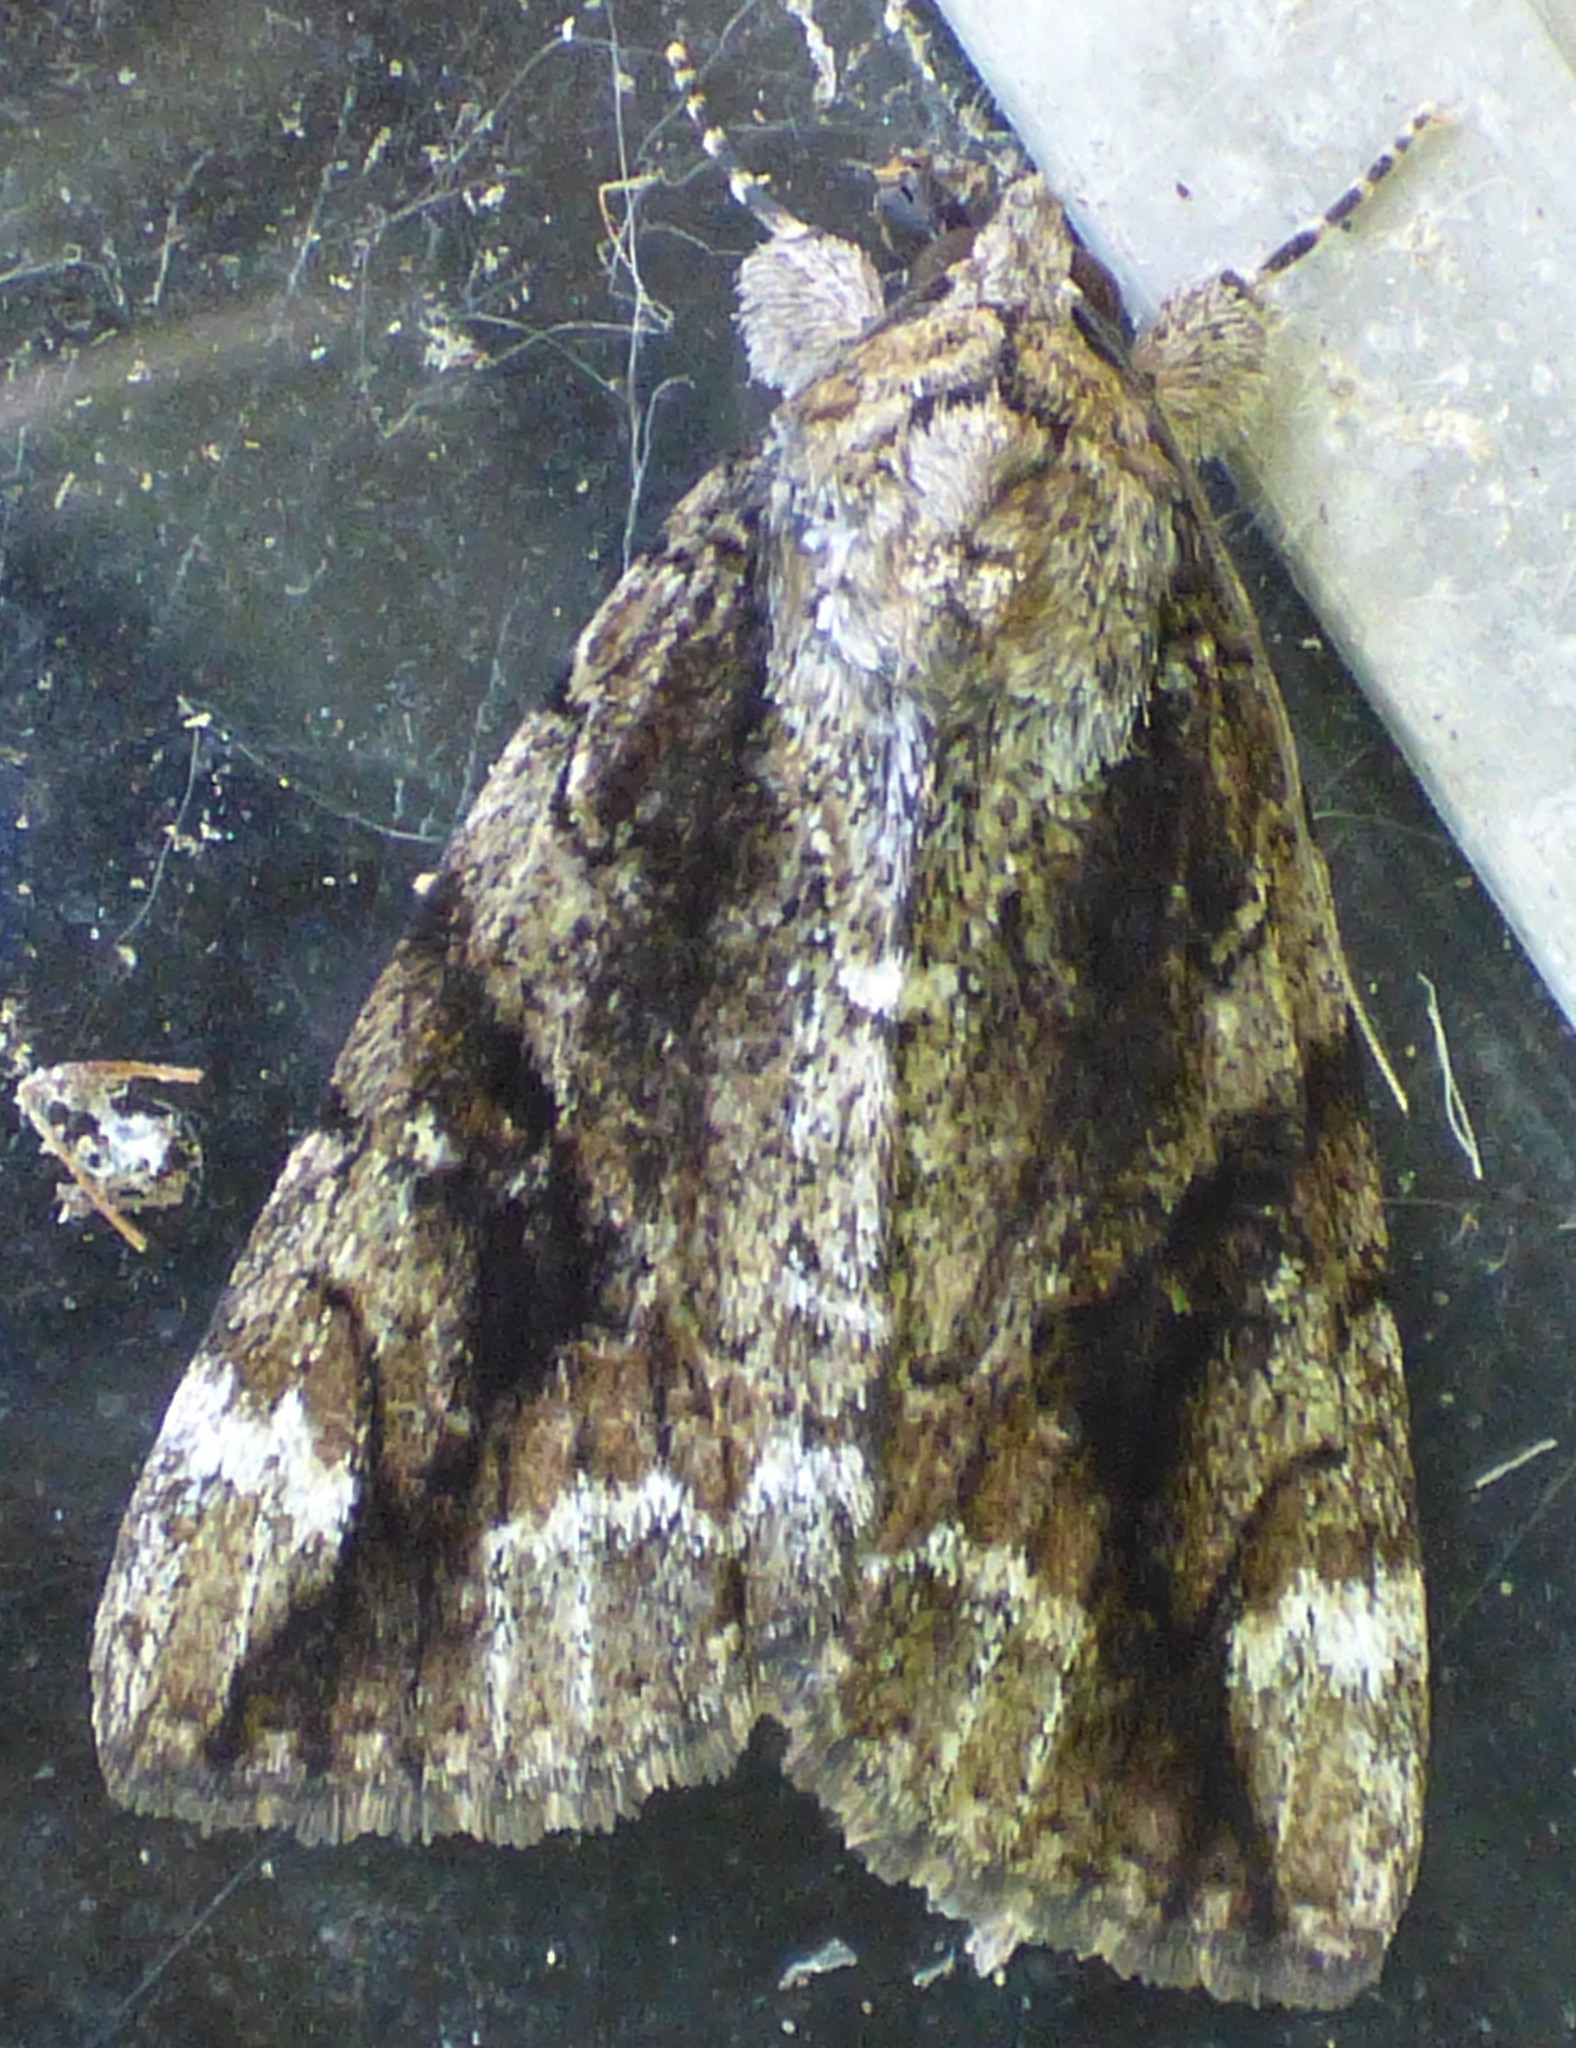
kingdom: Animalia
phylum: Arthropoda
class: Insecta
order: Lepidoptera
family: Erebidae
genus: Catocala
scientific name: Catocala micronympha
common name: Little nymph underwing
